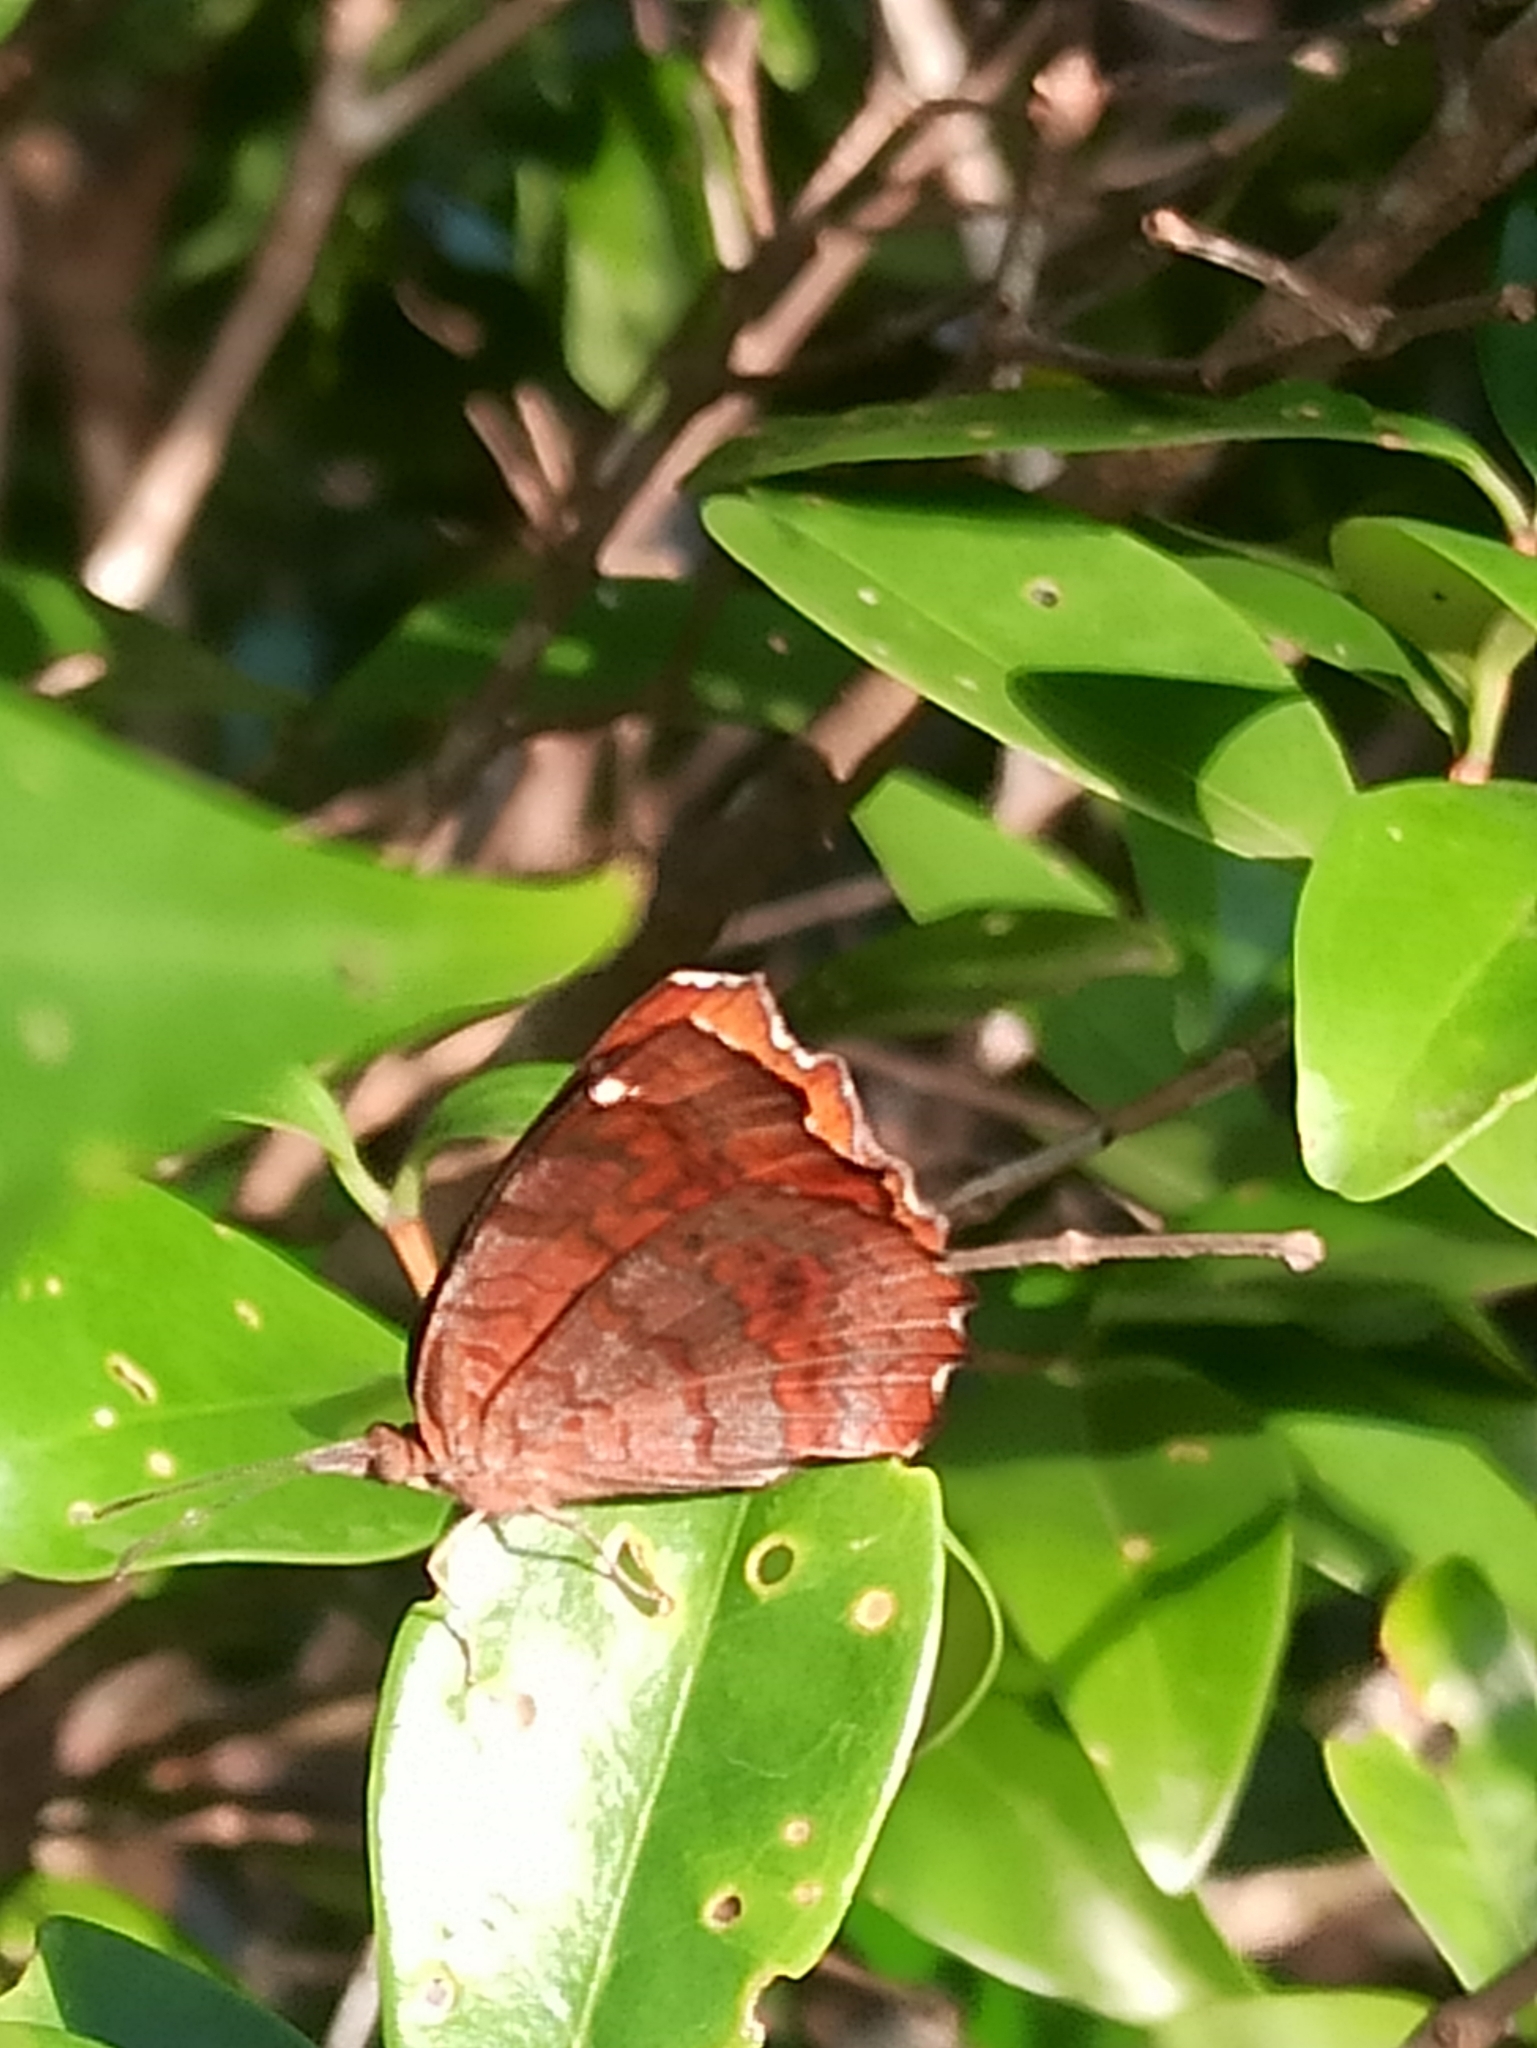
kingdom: Animalia
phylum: Arthropoda
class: Insecta
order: Lepidoptera
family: Nymphalidae
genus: Ariadne
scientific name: Ariadne ariadne
